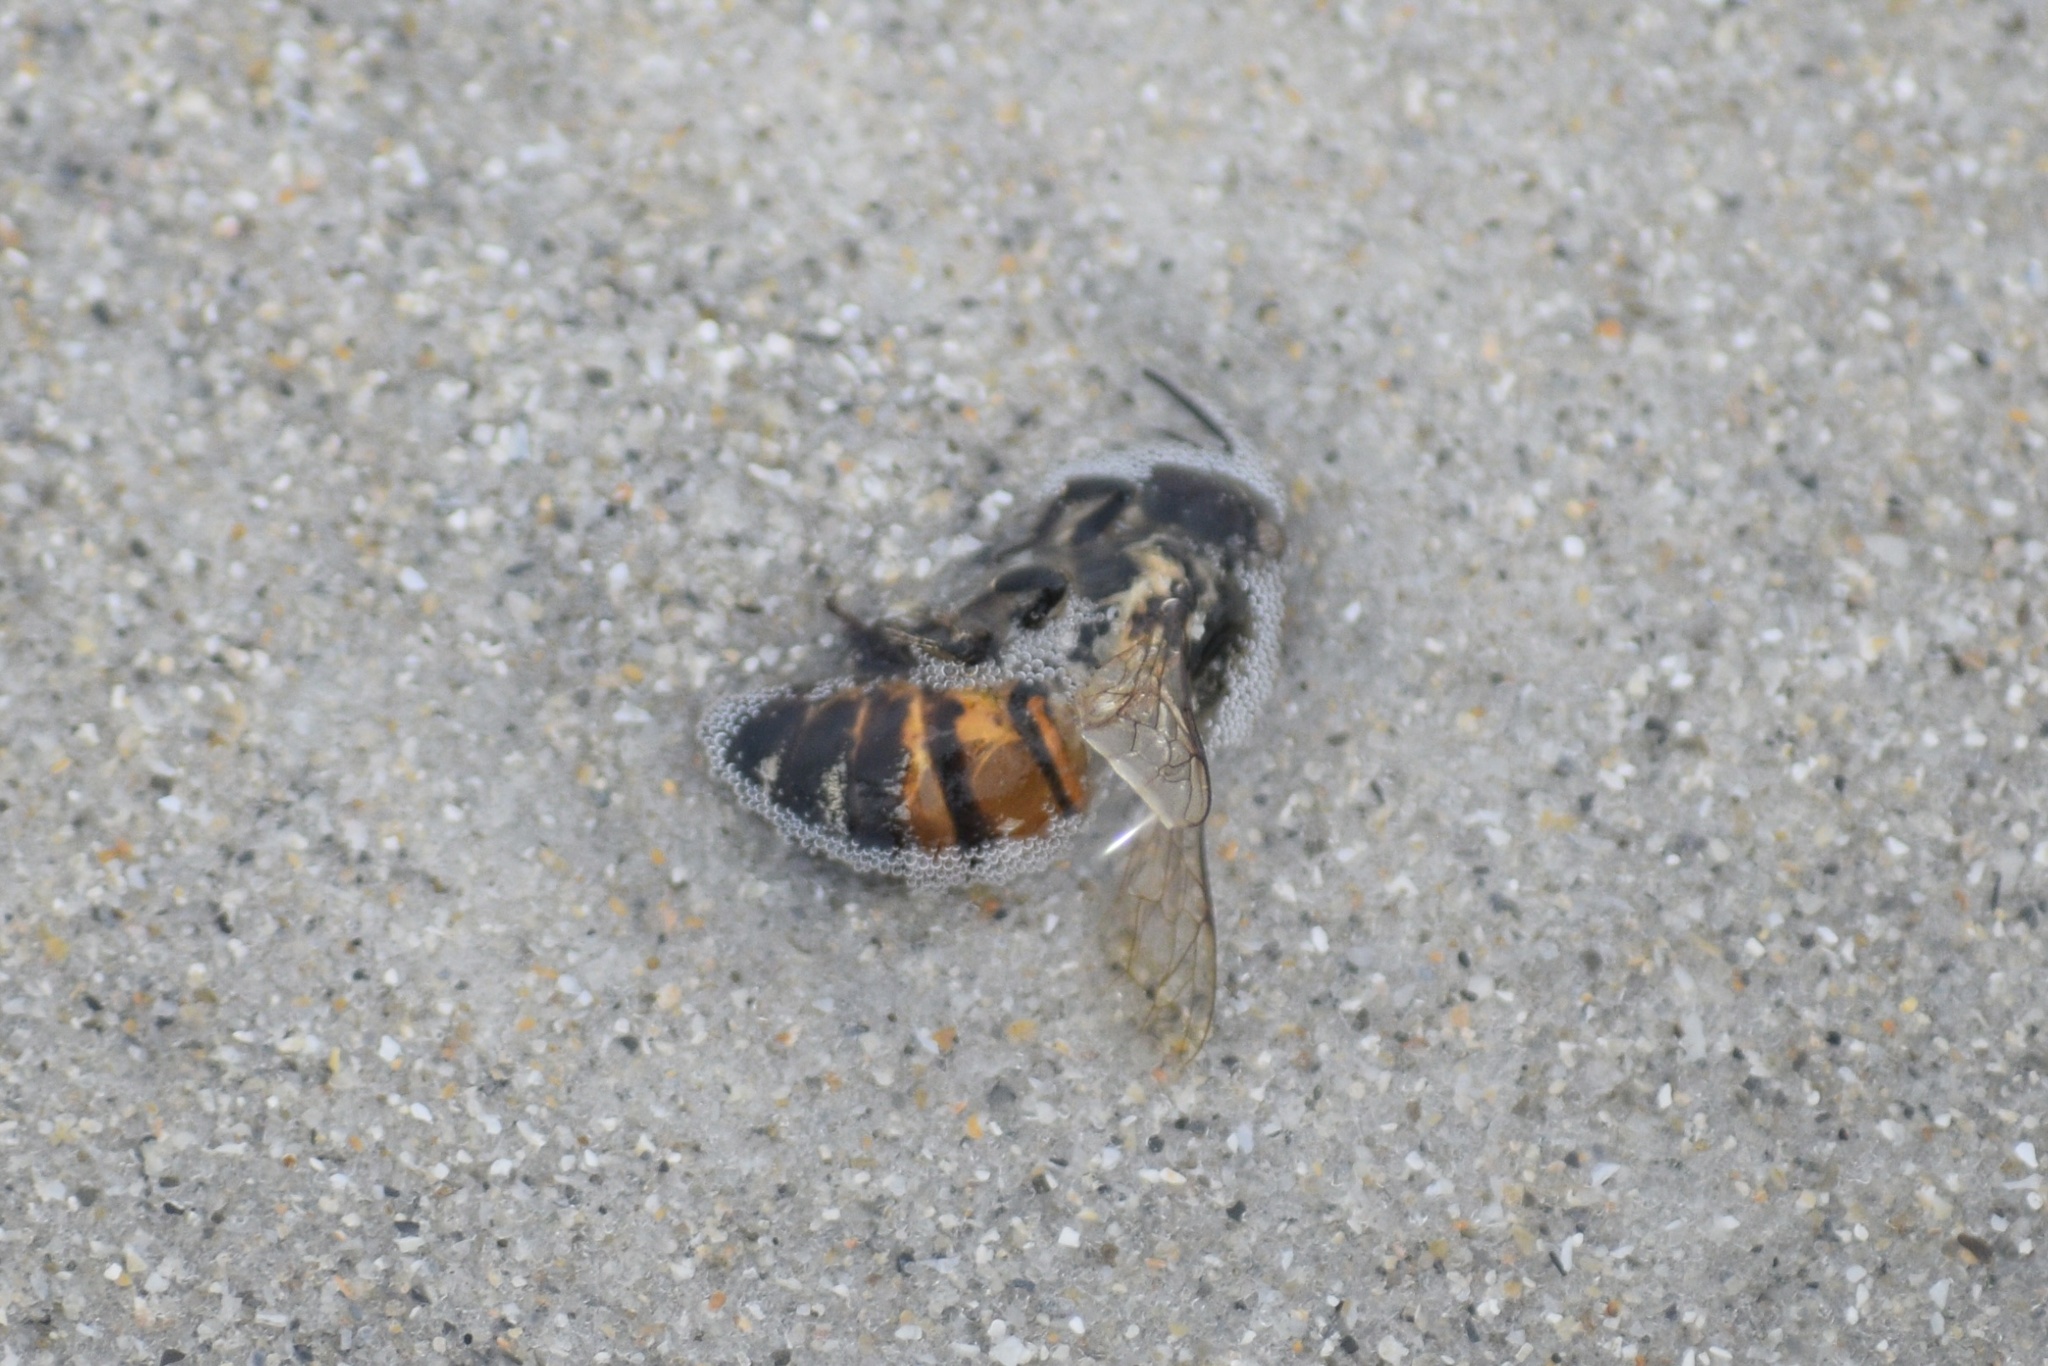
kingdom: Animalia
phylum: Arthropoda
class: Insecta
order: Hymenoptera
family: Apidae
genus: Apis
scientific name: Apis mellifera
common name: Honey bee
